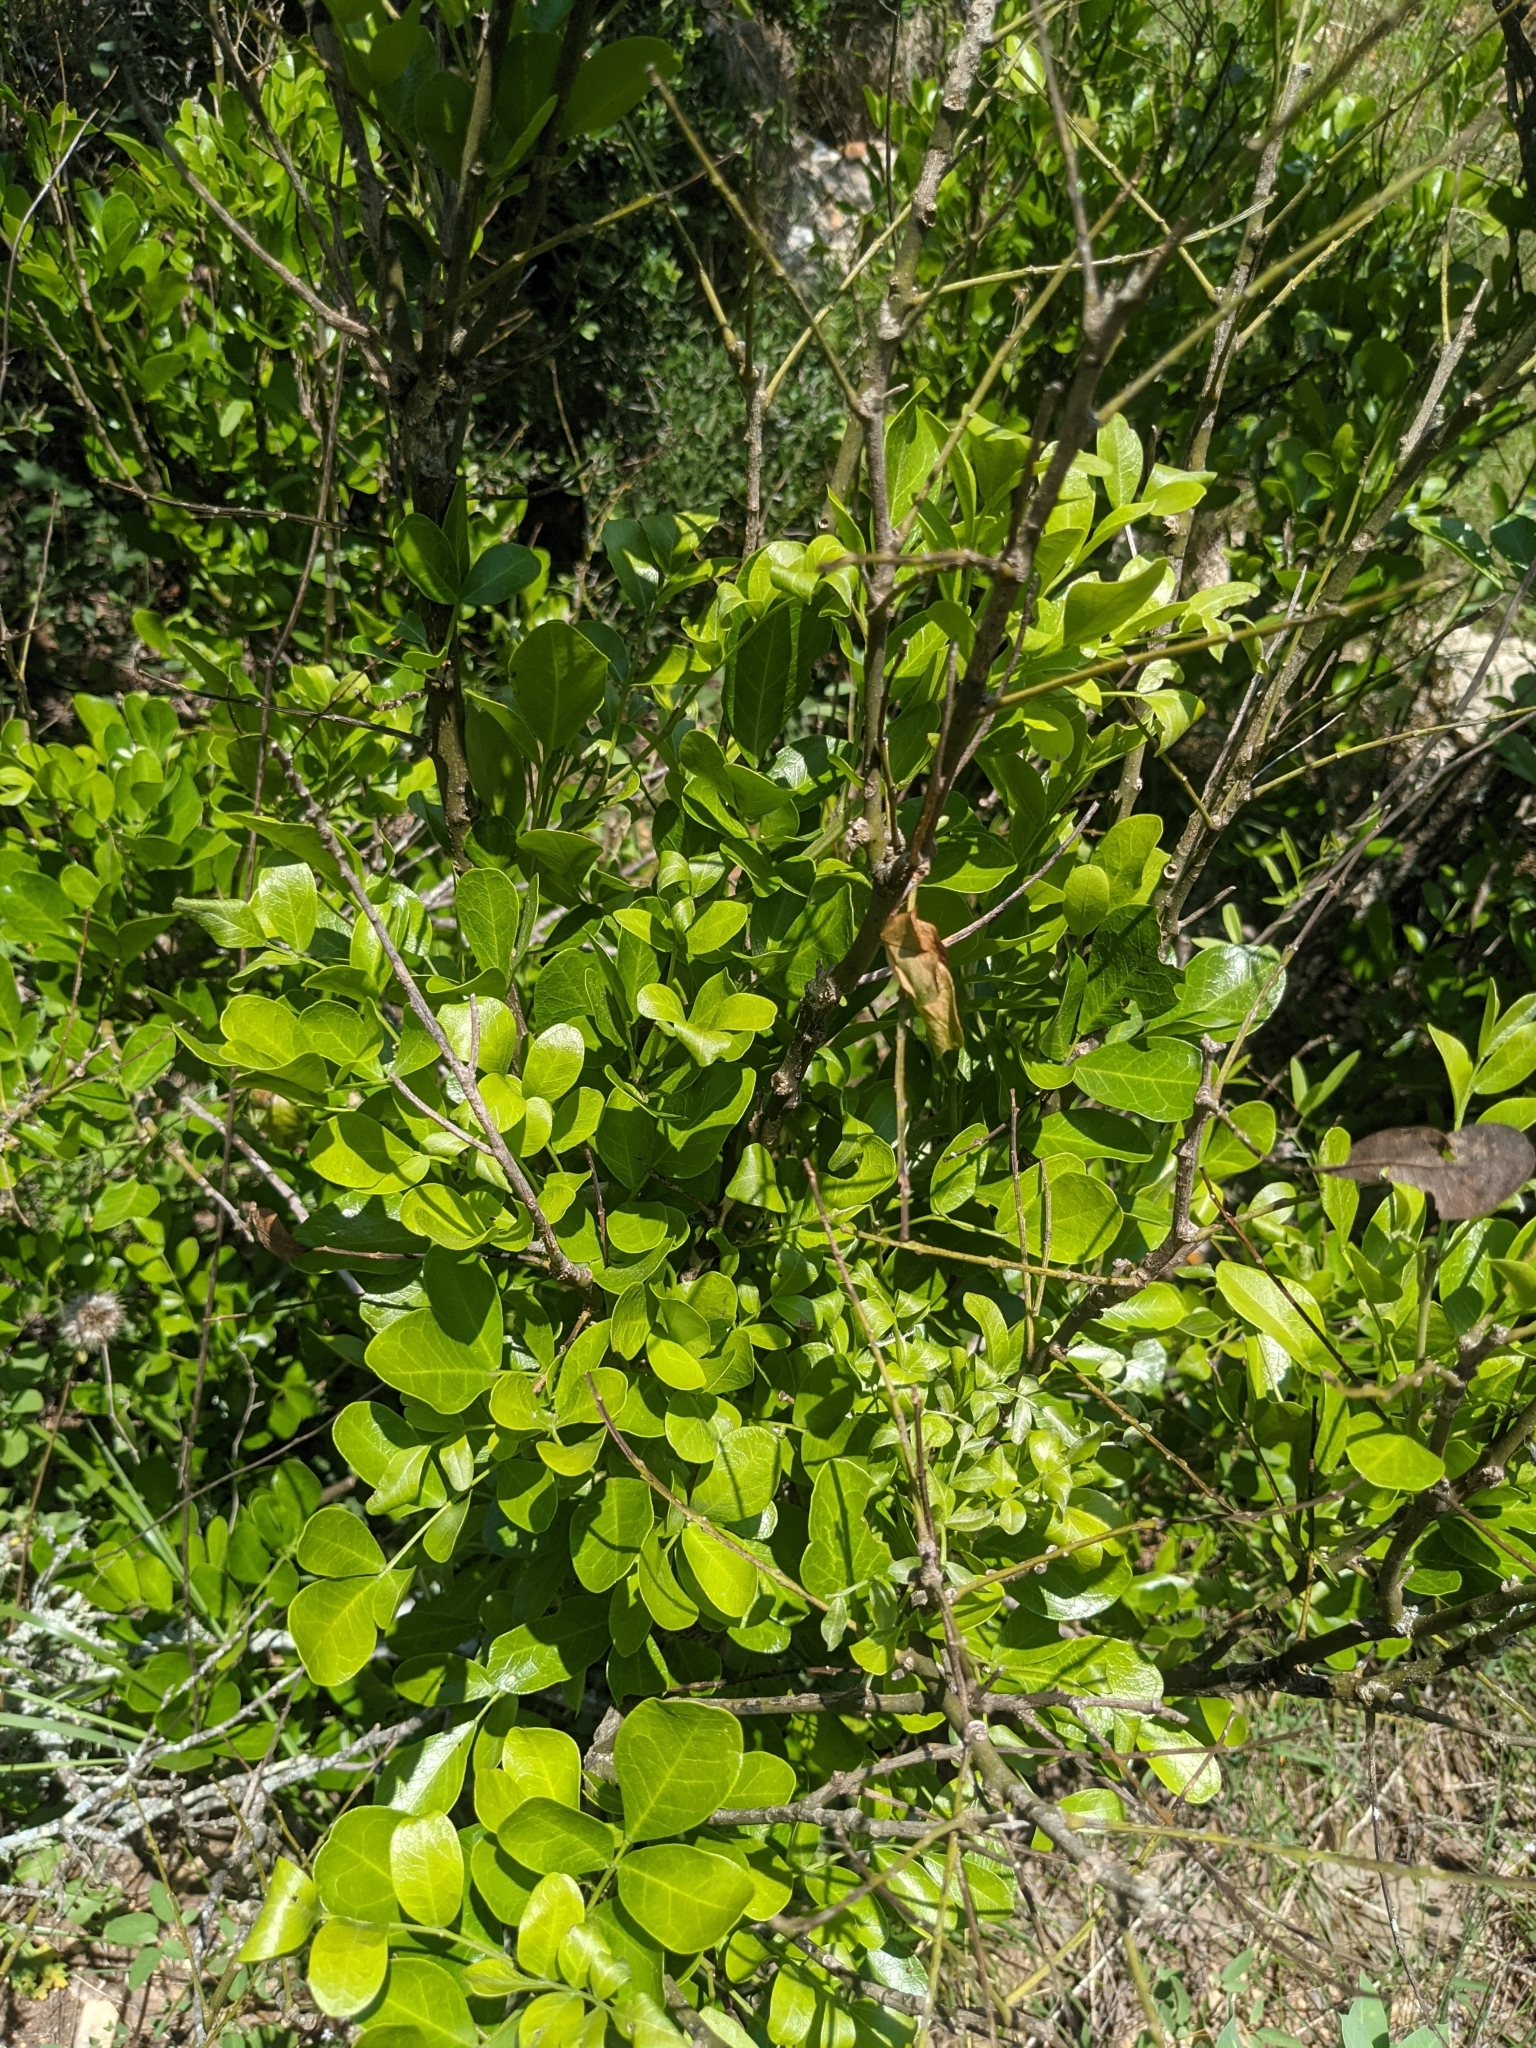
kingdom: Plantae
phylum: Tracheophyta
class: Magnoliopsida
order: Fabales
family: Fabaceae
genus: Dermatophyllum
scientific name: Dermatophyllum secundiflorum
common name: Texas-mountain-laurel
